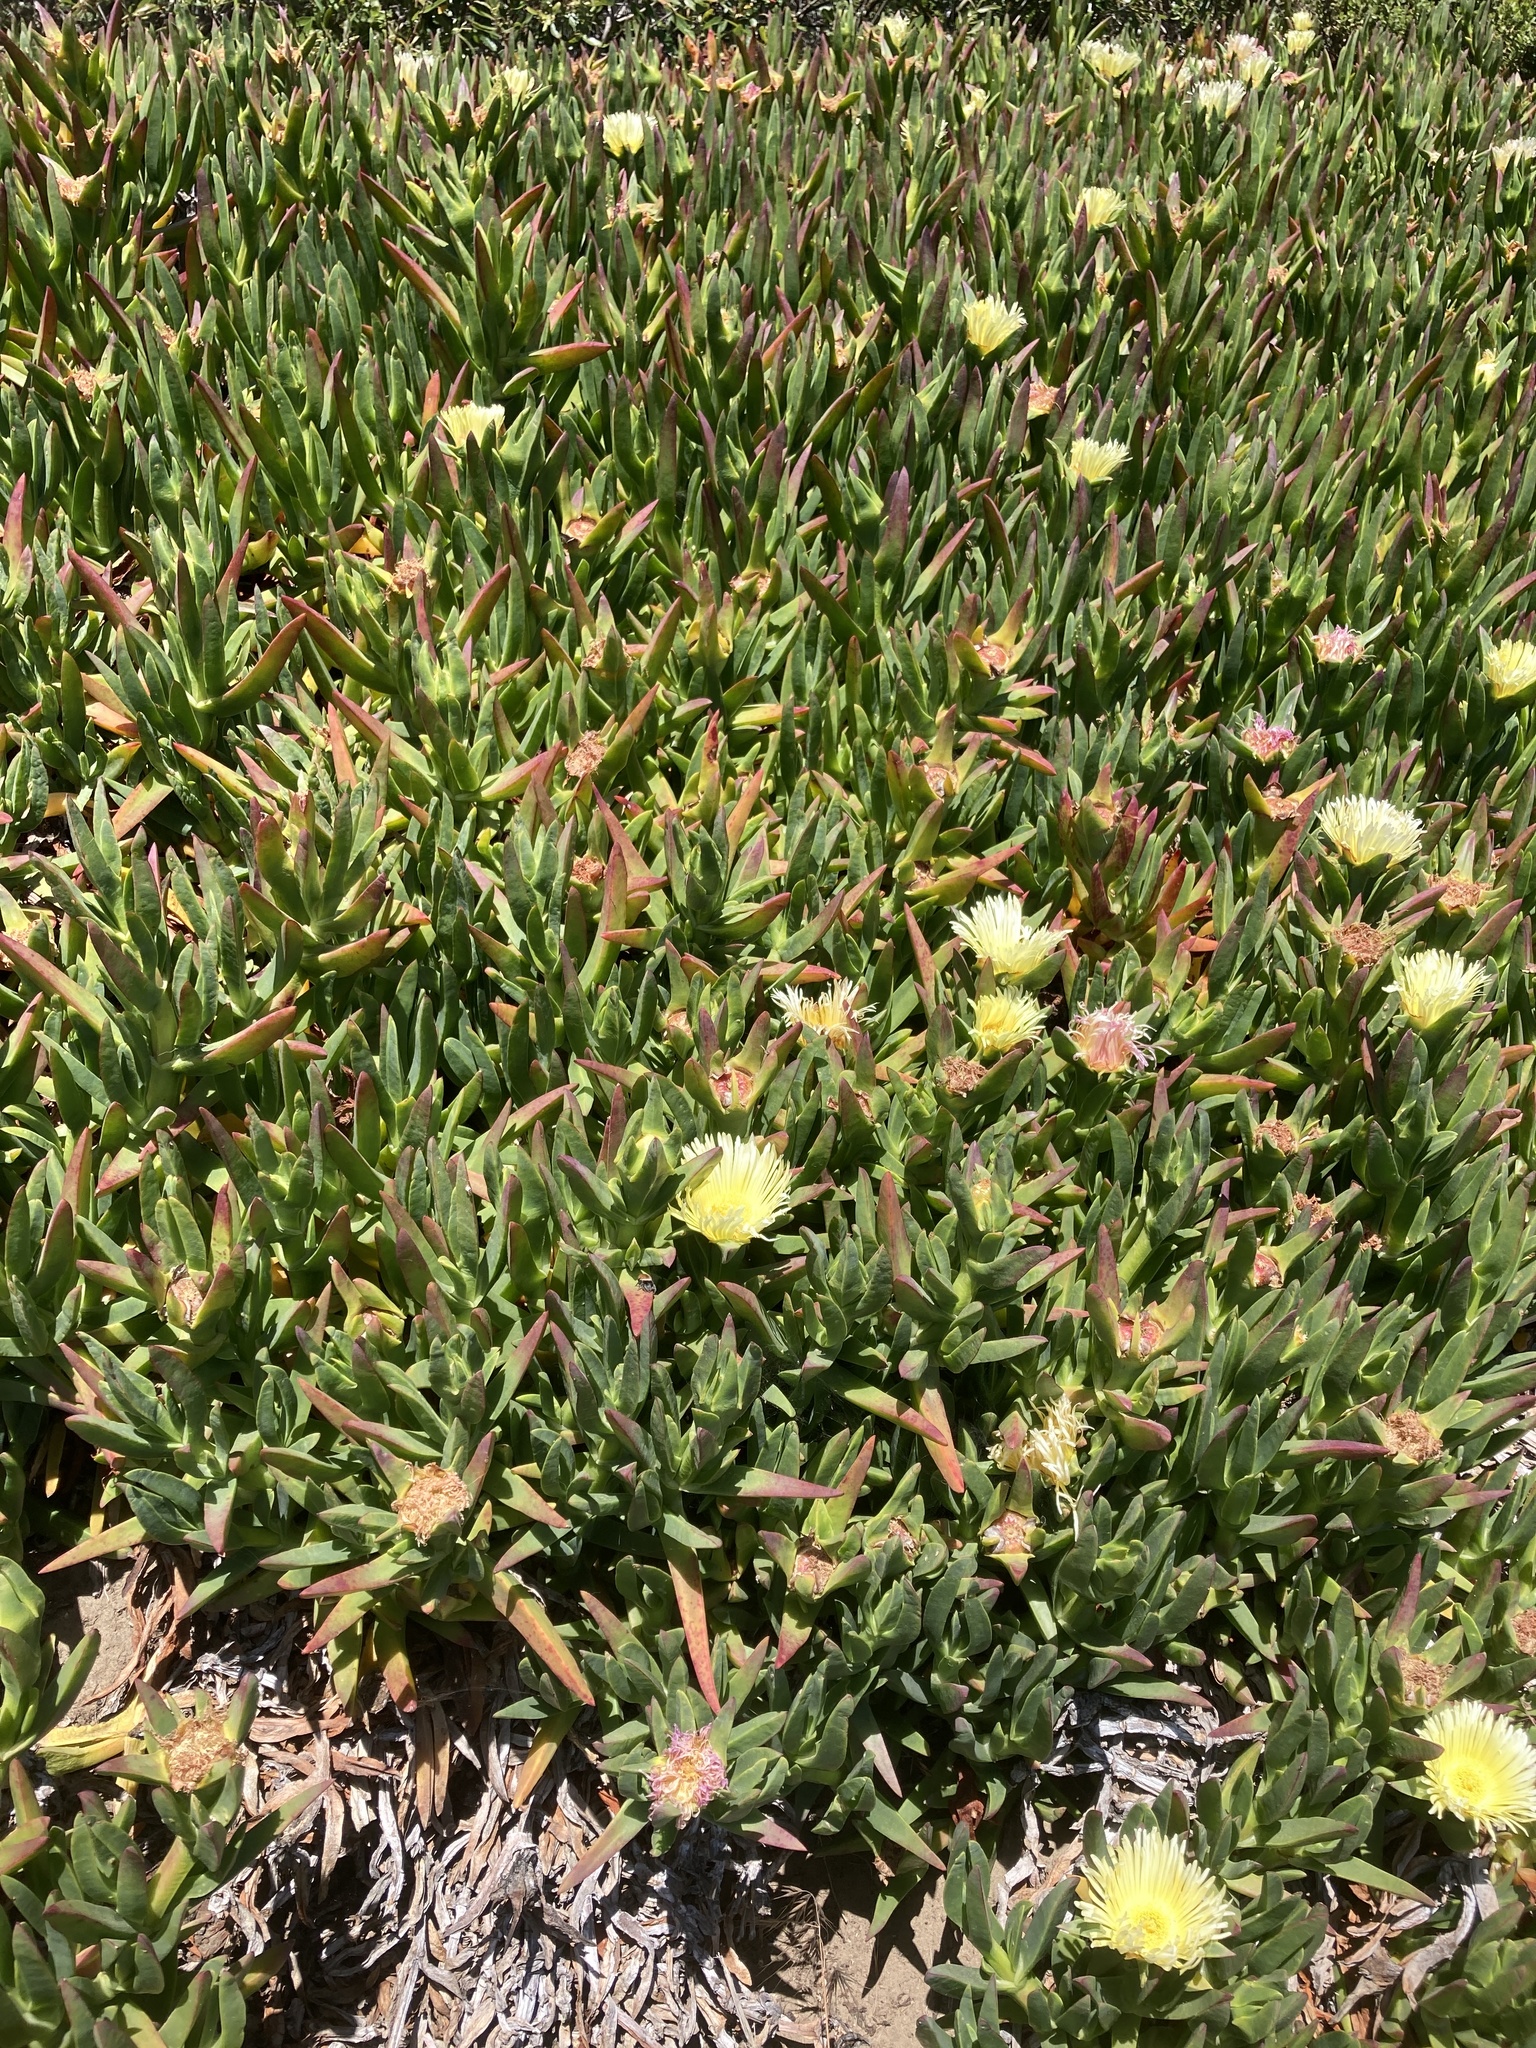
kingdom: Plantae
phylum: Tracheophyta
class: Magnoliopsida
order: Caryophyllales
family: Aizoaceae
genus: Carpobrotus
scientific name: Carpobrotus edulis
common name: Hottentot-fig
